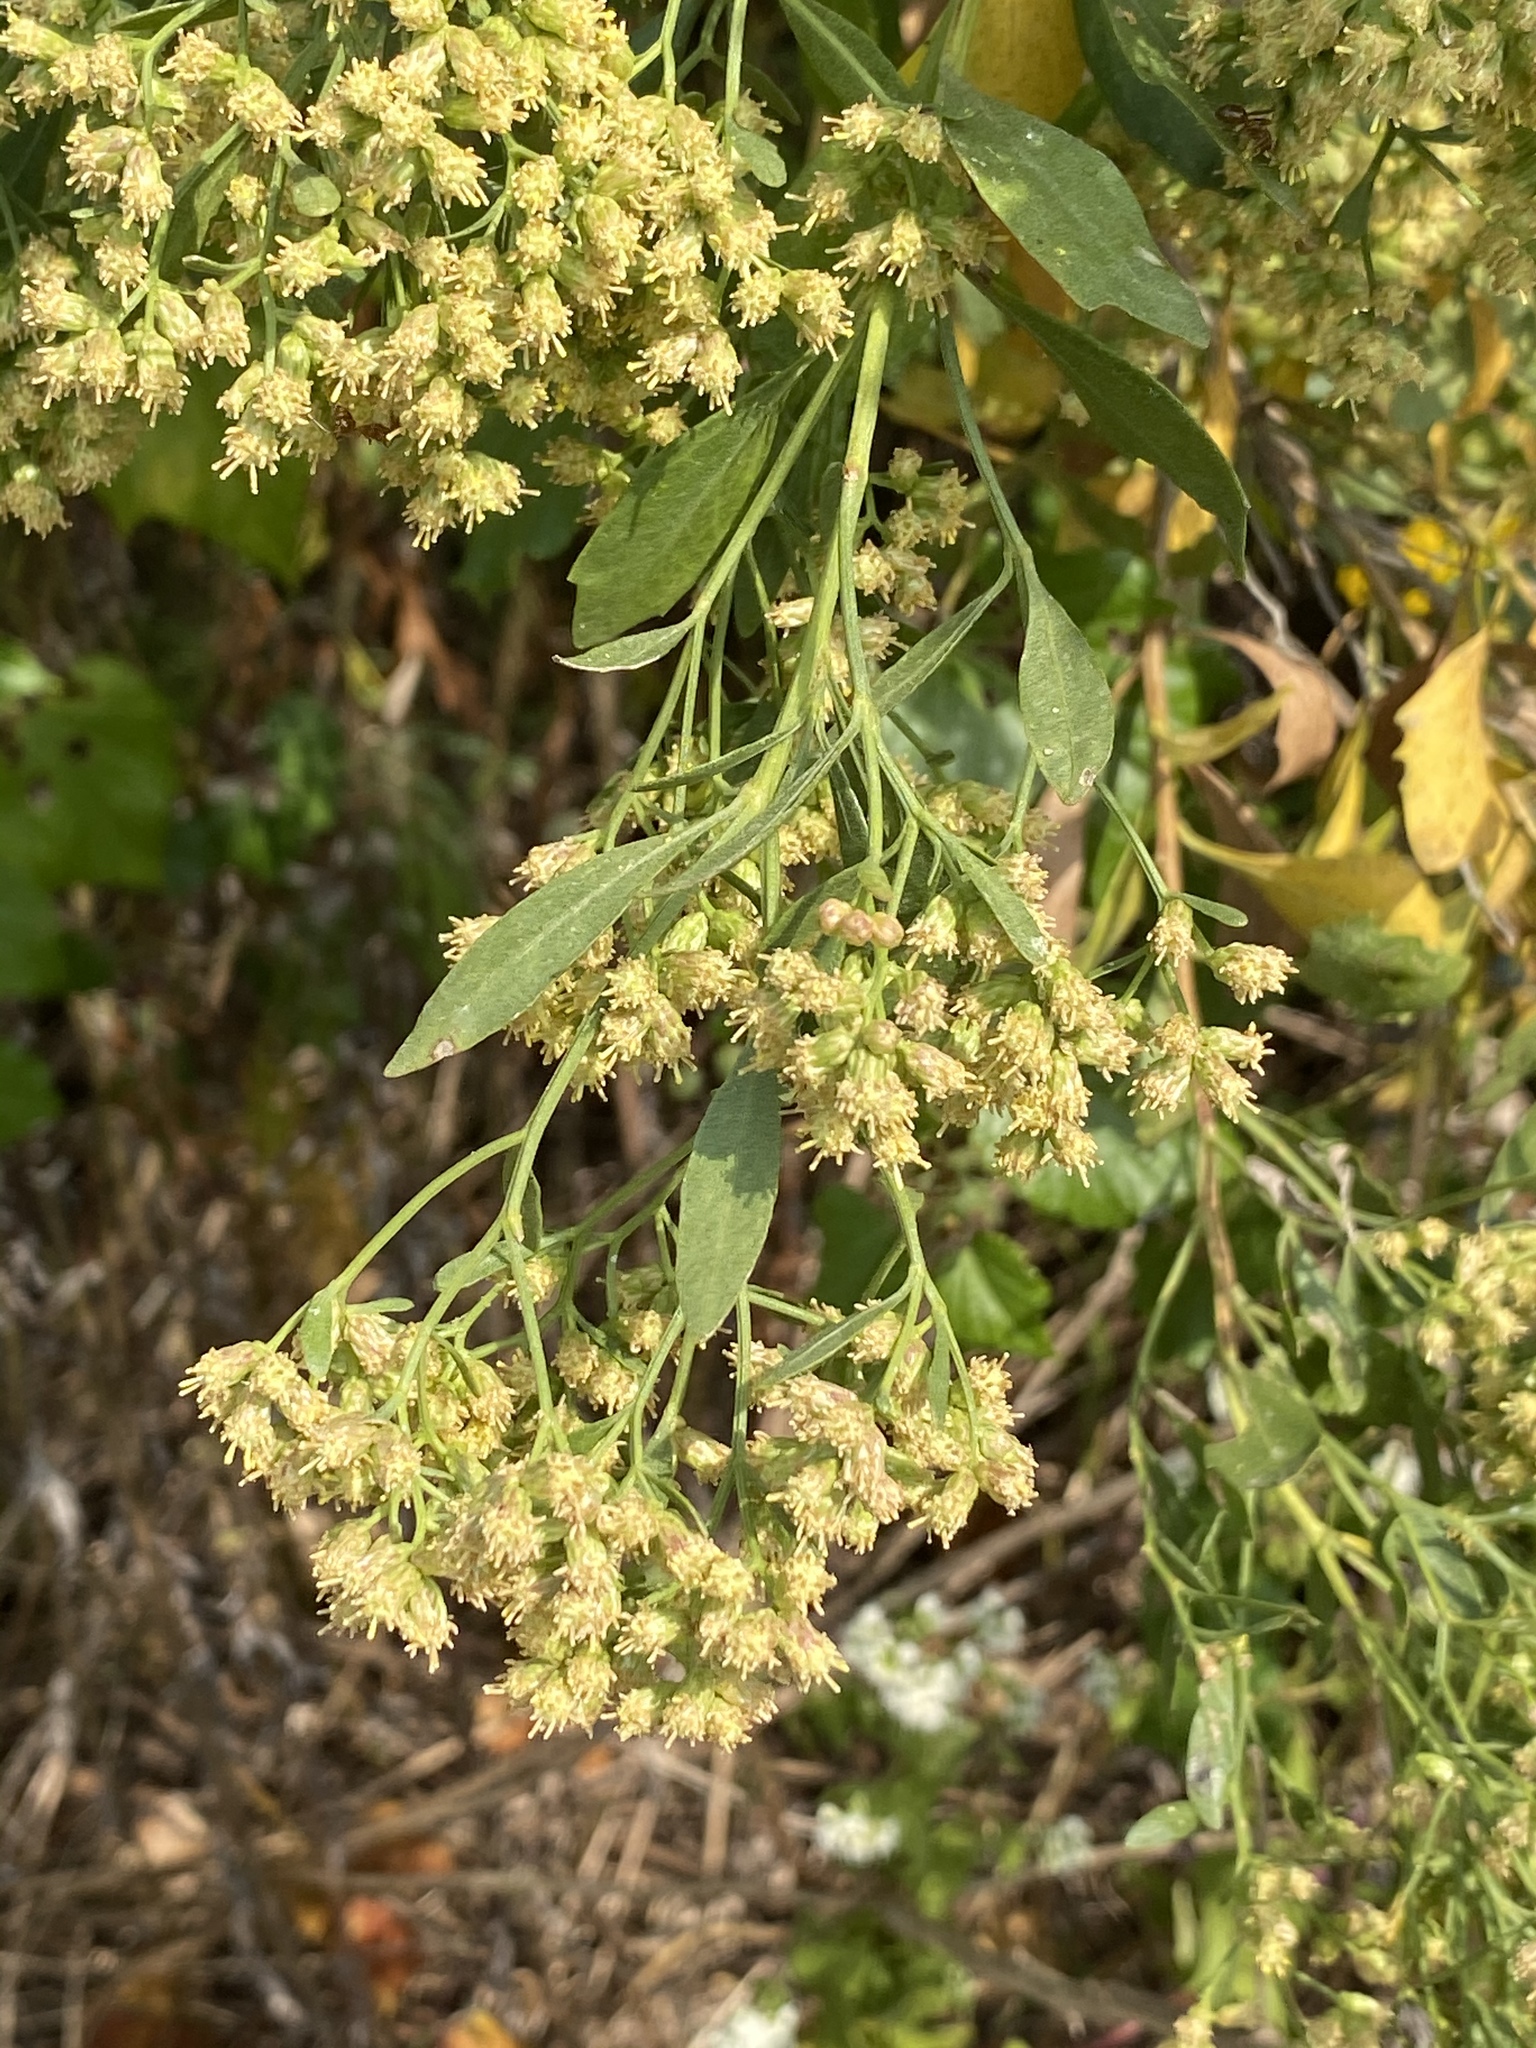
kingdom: Plantae
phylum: Tracheophyta
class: Magnoliopsida
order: Asterales
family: Asteraceae
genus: Baccharis
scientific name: Baccharis halimifolia
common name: Eastern baccharis
